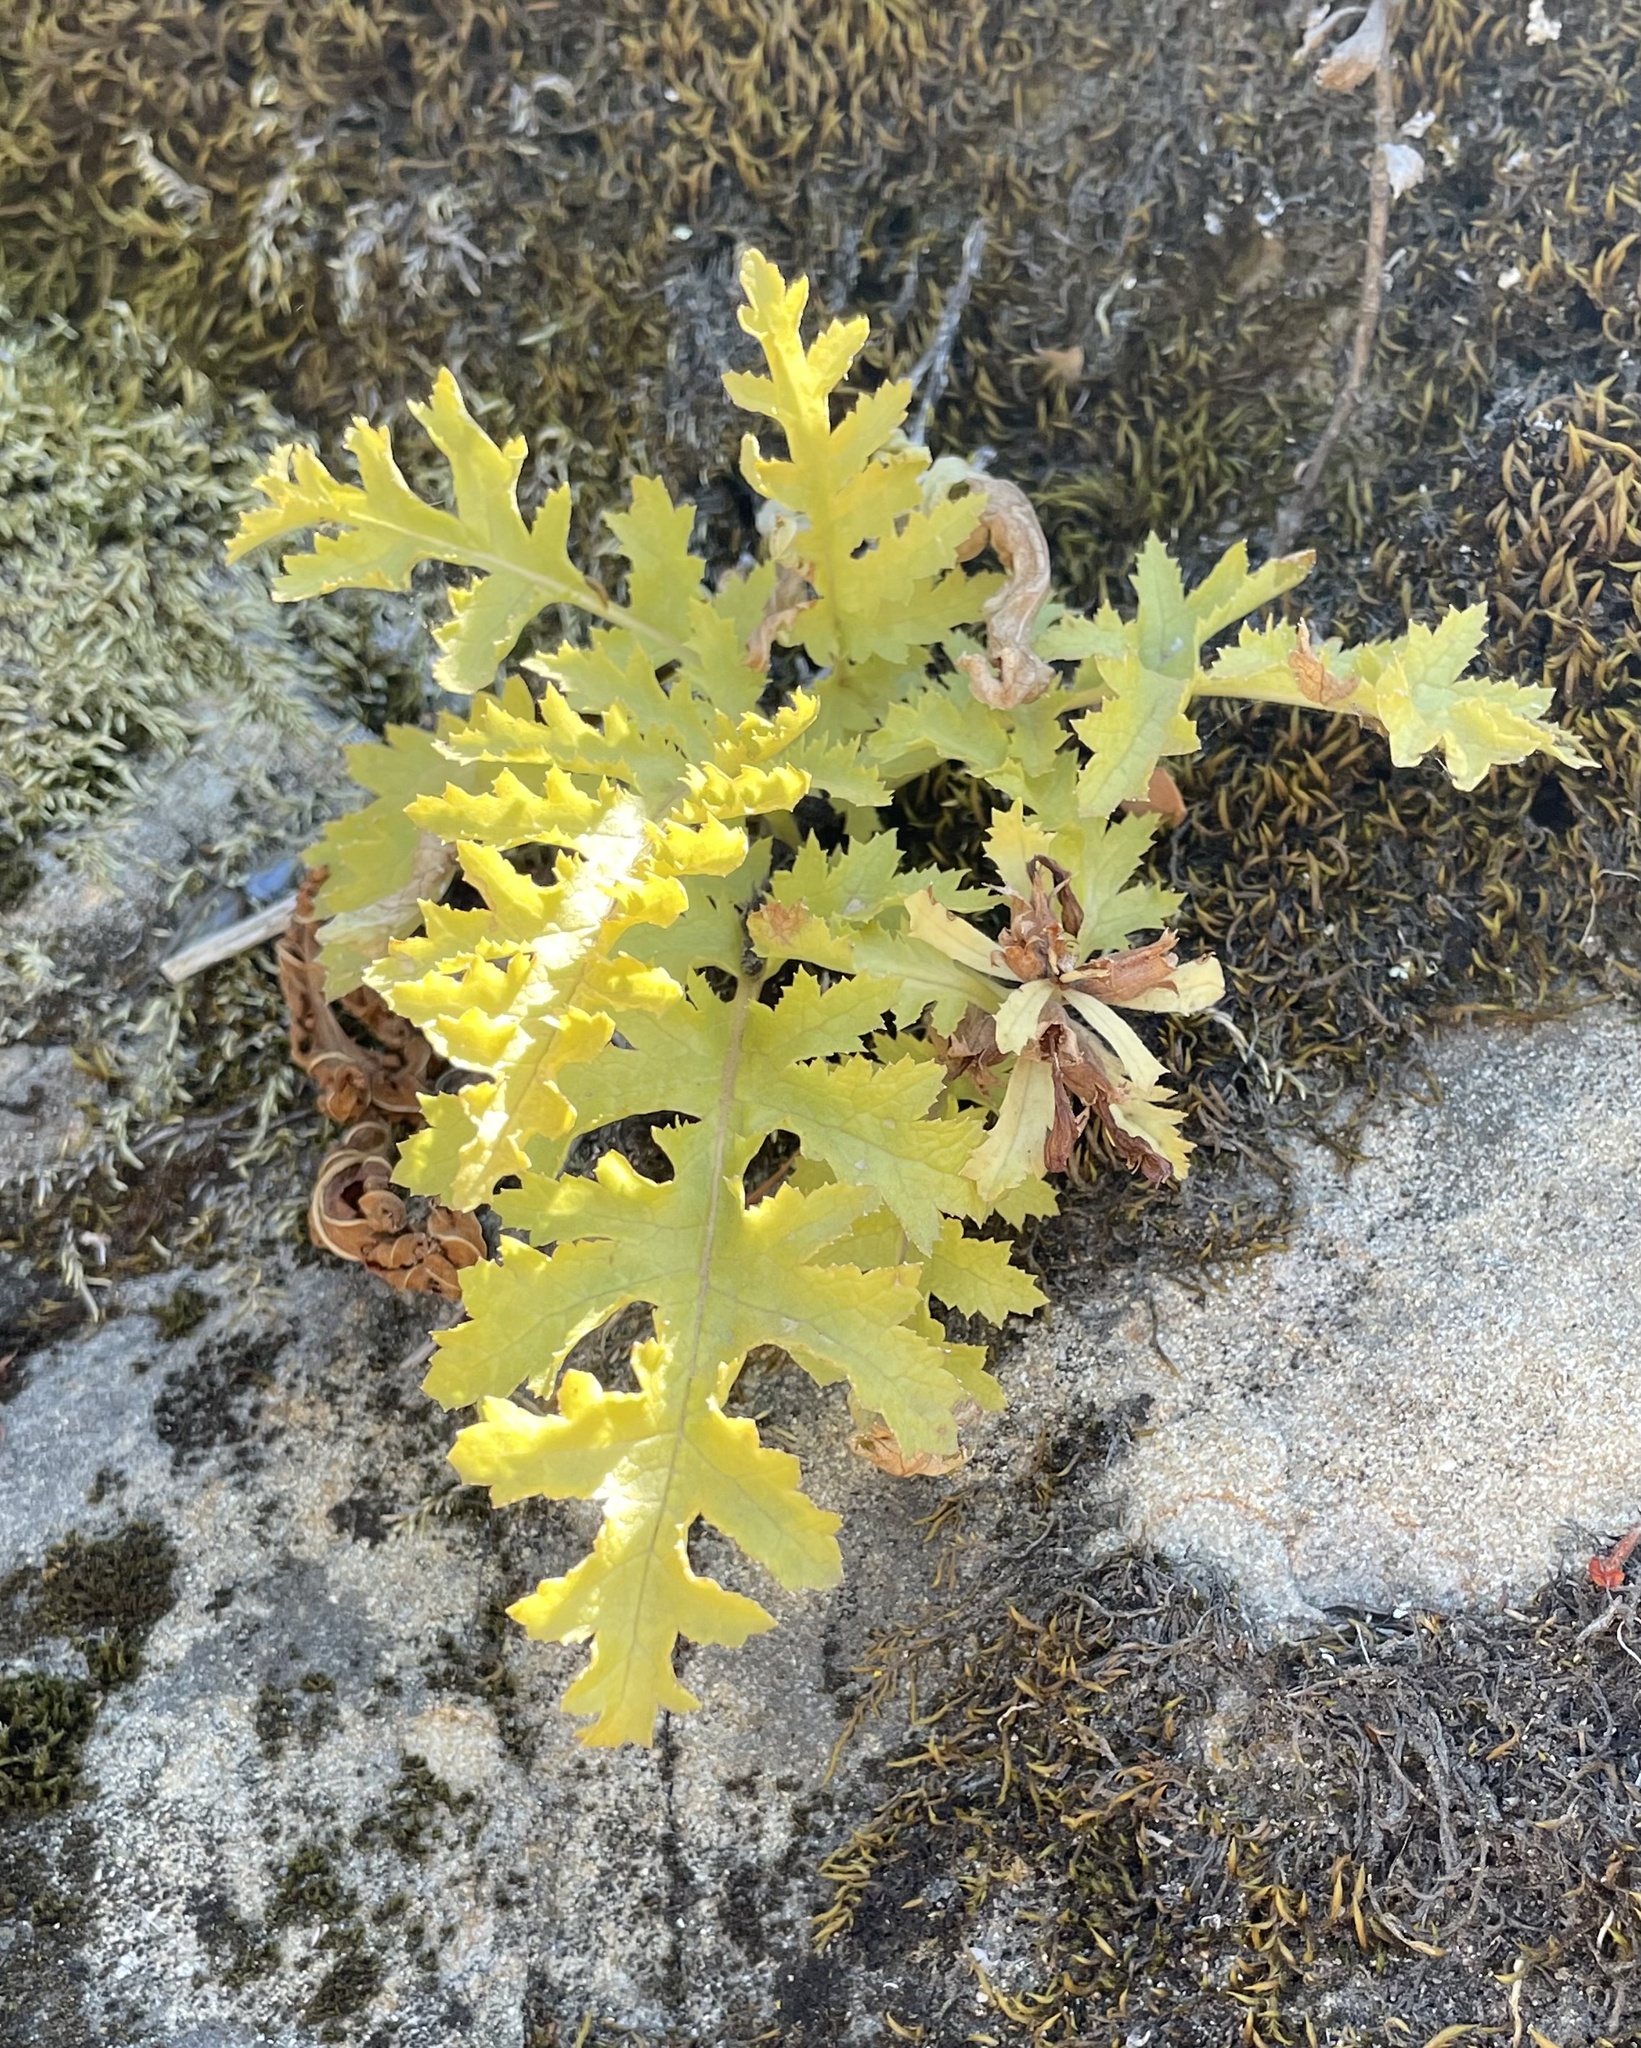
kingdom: Plantae
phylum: Tracheophyta
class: Magnoliopsida
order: Lamiales
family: Orobanchaceae
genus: Pedicularis
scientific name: Pedicularis densiflora
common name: Indian warrior
